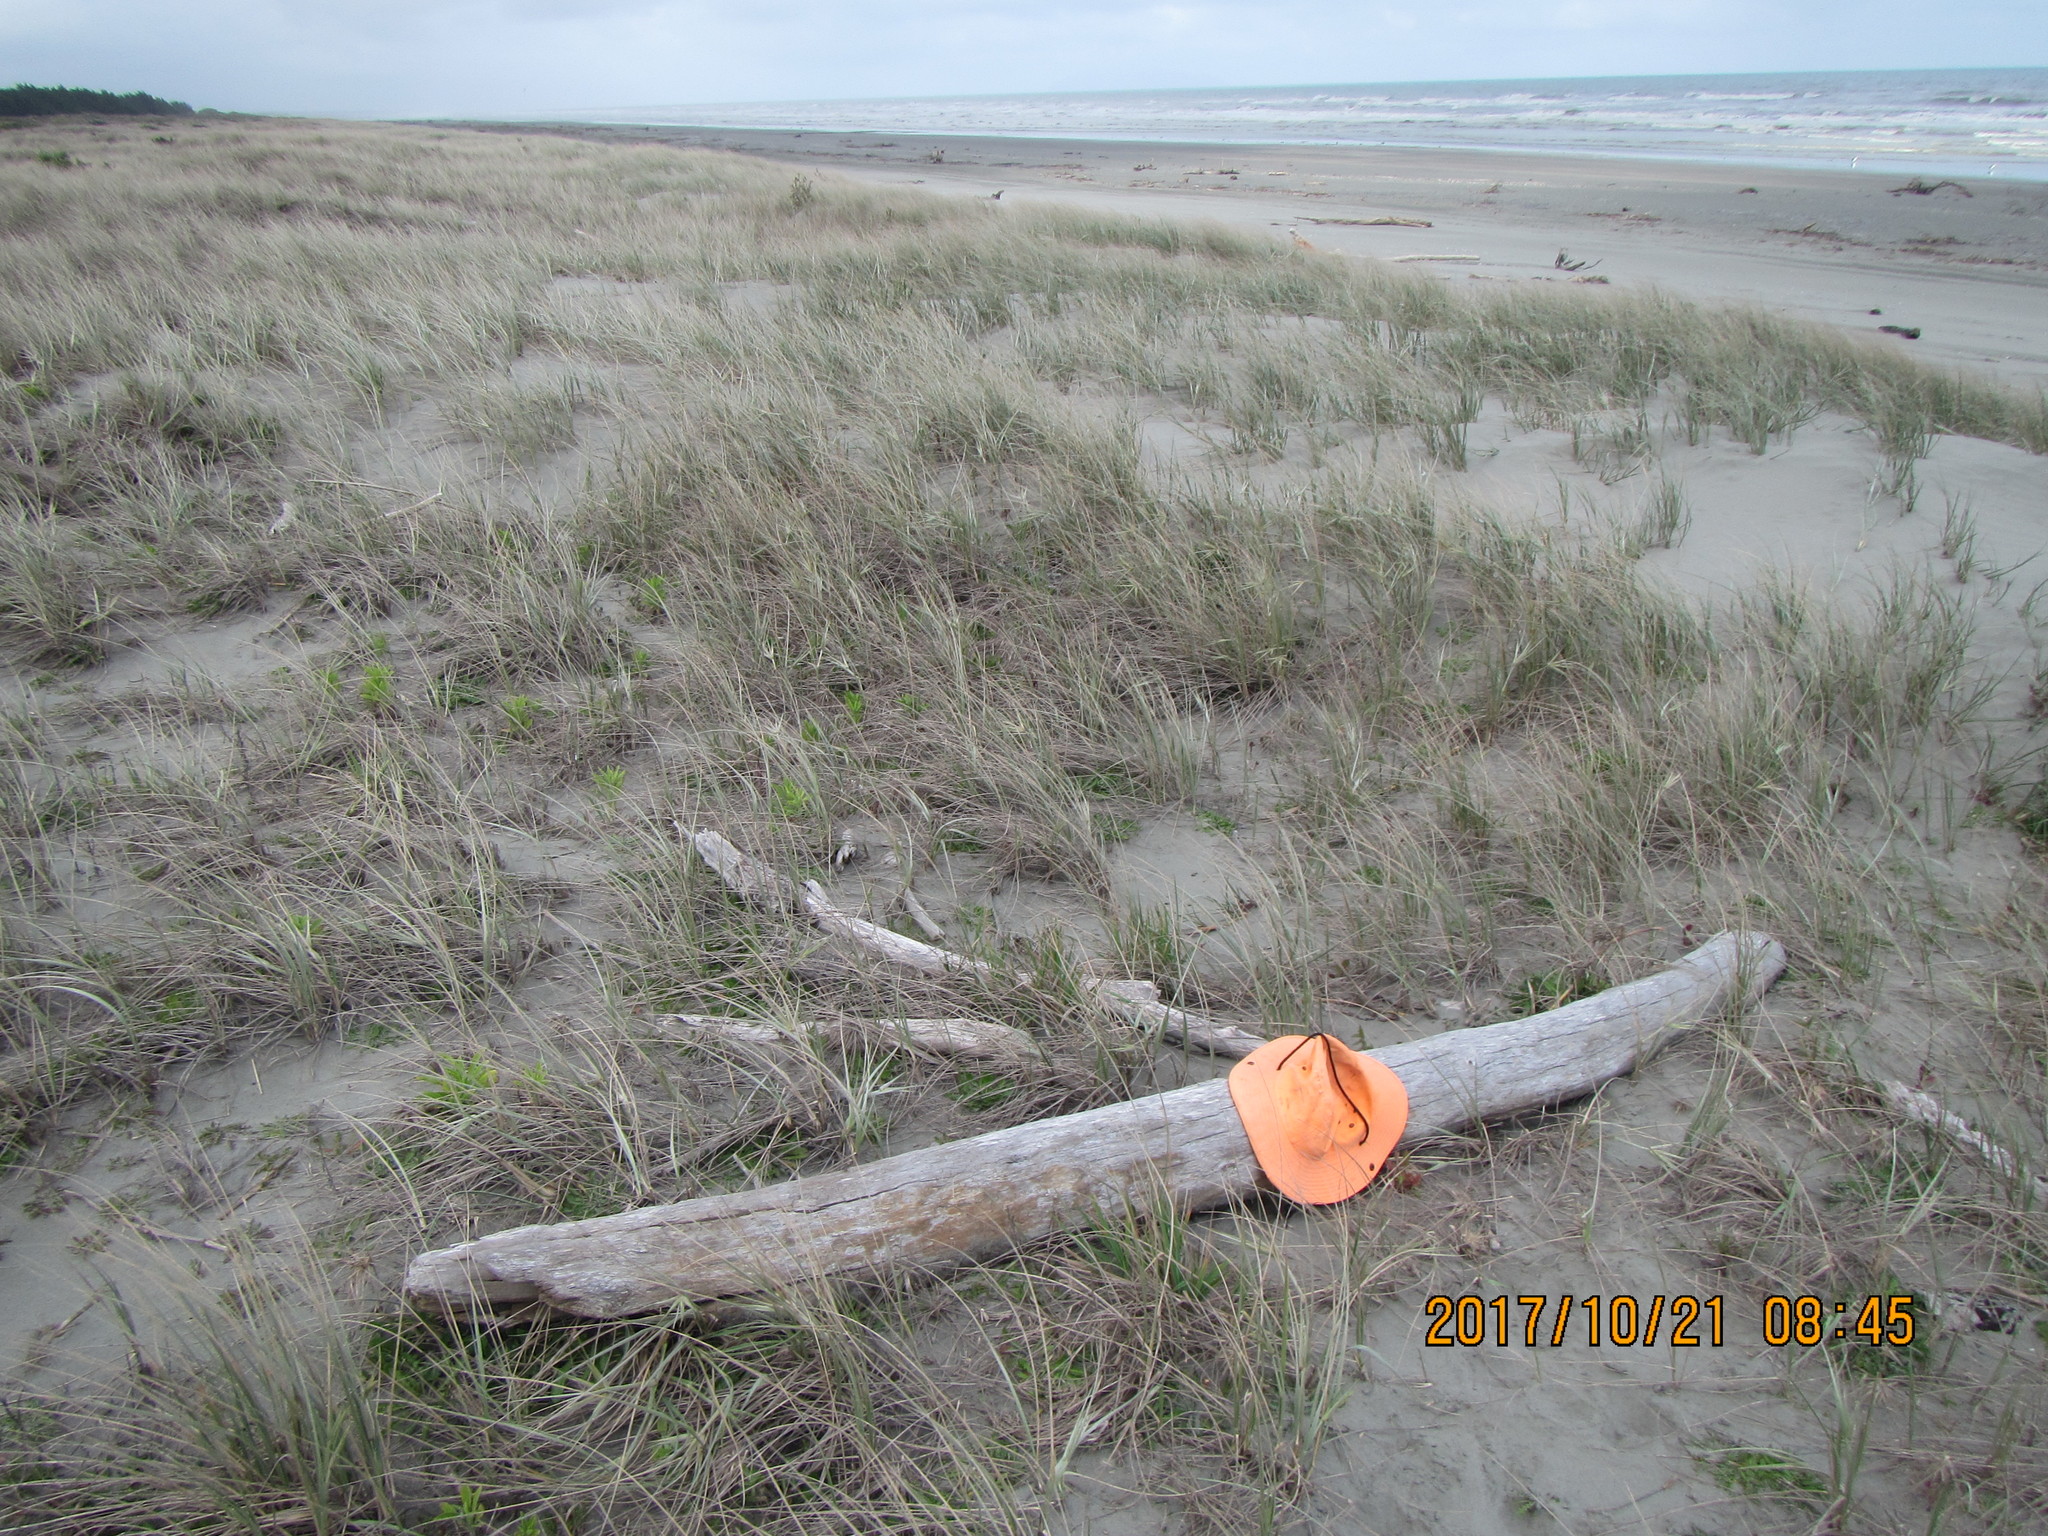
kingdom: Animalia
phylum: Platyhelminthes
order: Tricladida
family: Geoplanidae
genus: Caenoplana
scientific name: Caenoplana coerulea
